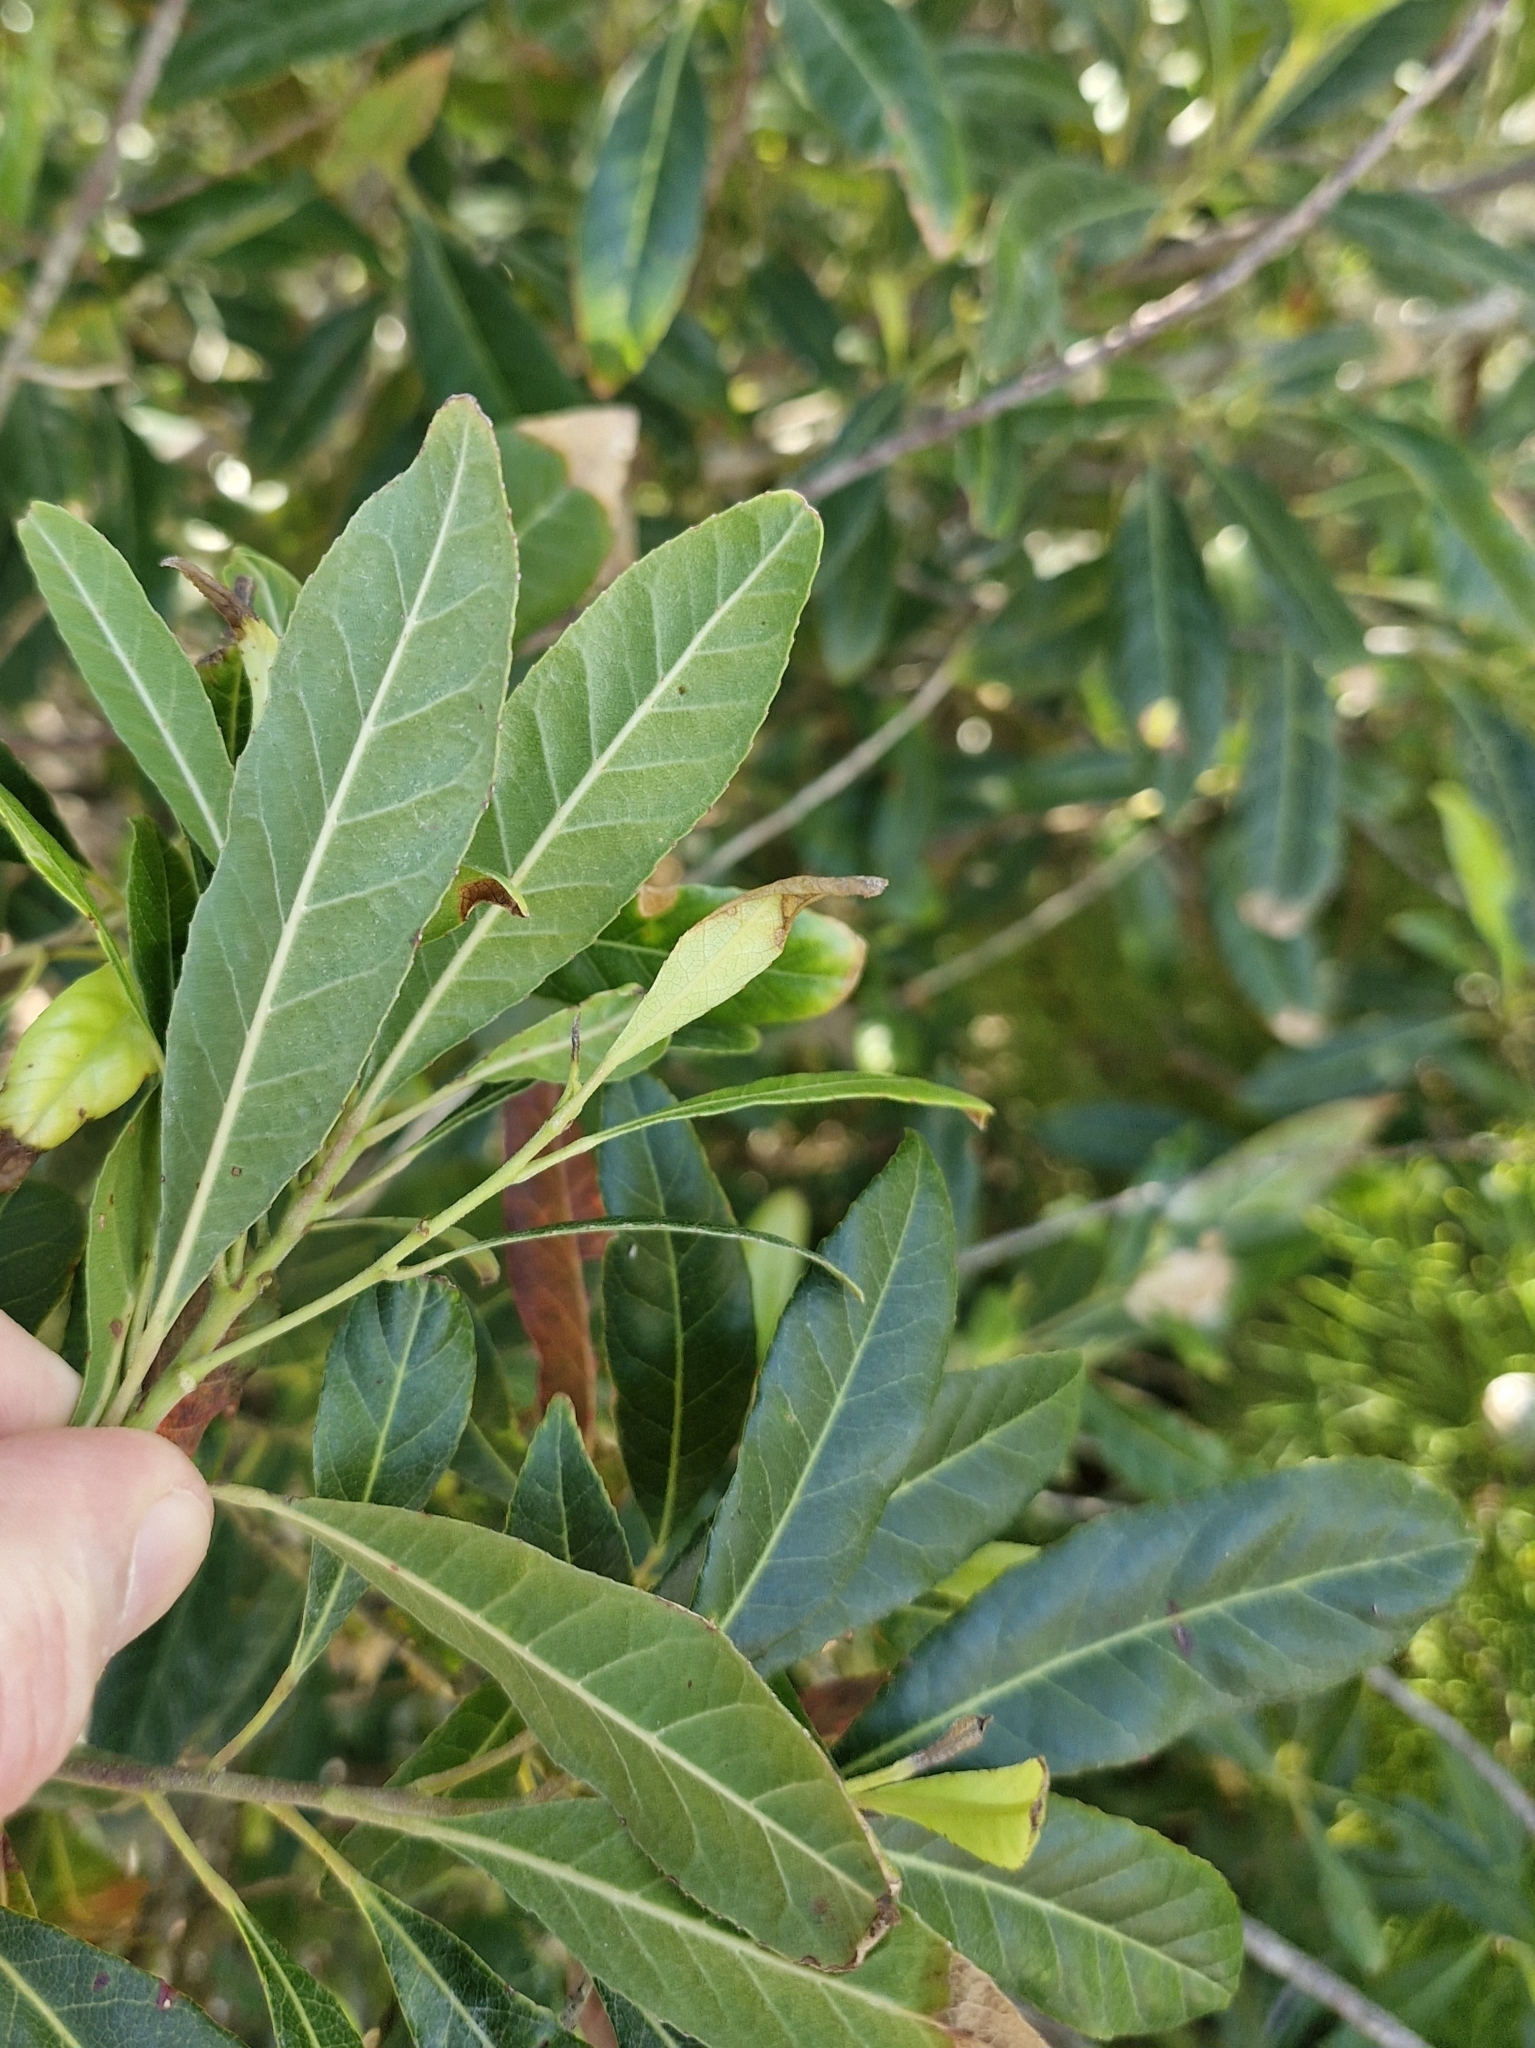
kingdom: Plantae
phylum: Tracheophyta
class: Magnoliopsida
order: Oxalidales
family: Elaeocarpaceae
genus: Elaeocarpus
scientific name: Elaeocarpus reticulatus
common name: Ash quandong
